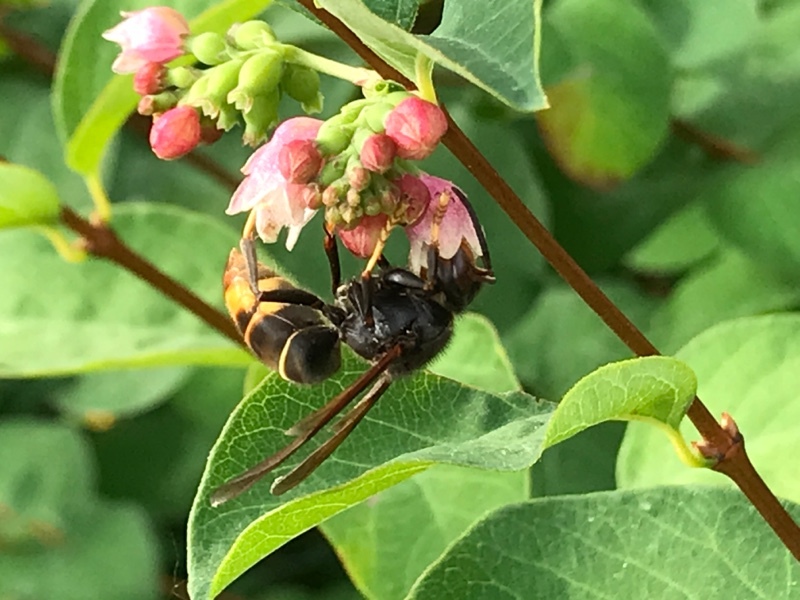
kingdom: Animalia
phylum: Arthropoda
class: Insecta
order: Hymenoptera
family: Vespidae
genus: Vespa
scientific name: Vespa velutina
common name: Asian hornet
